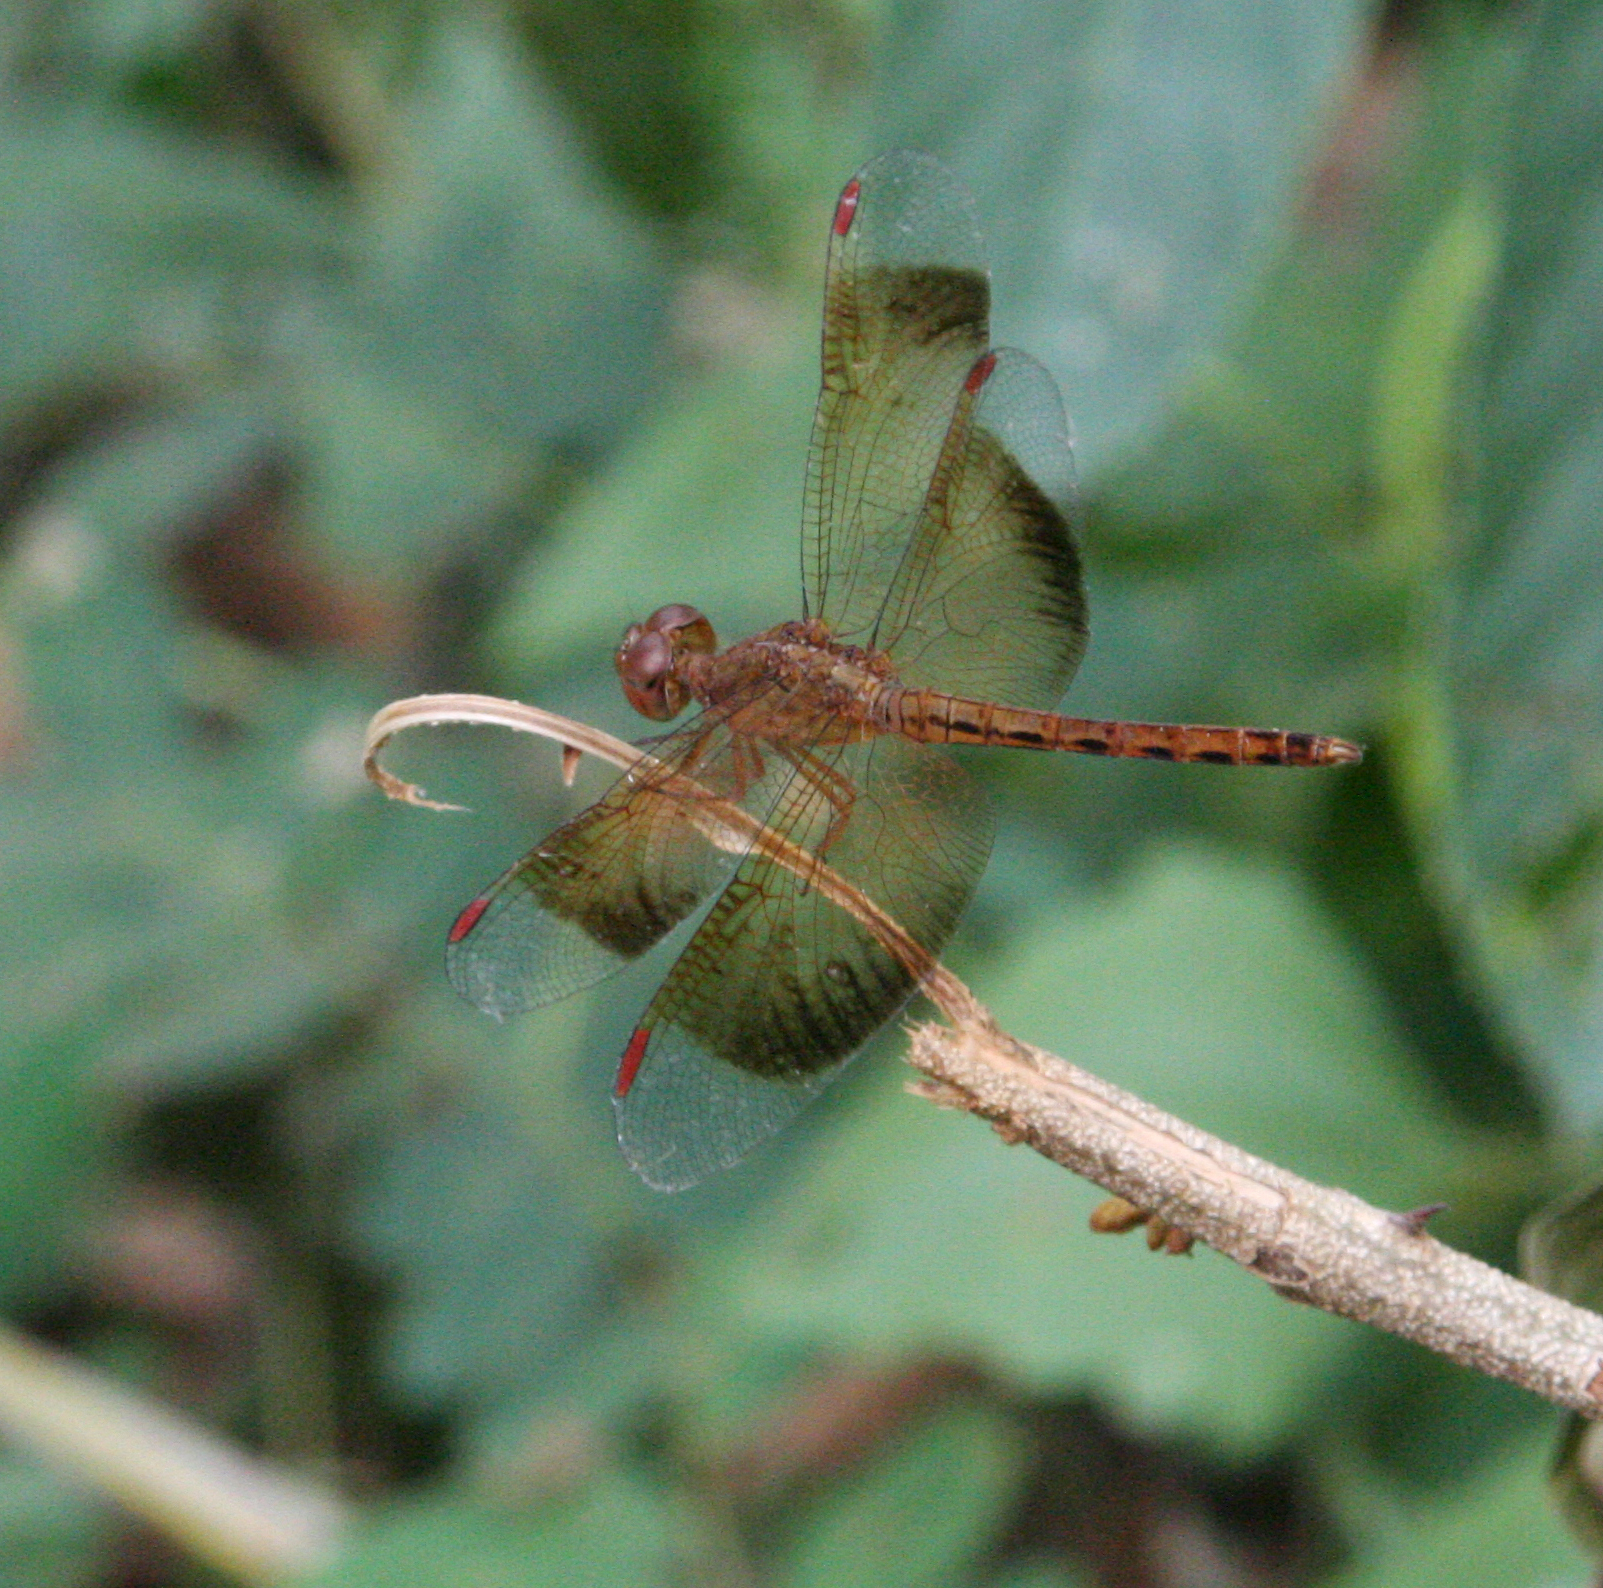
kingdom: Animalia
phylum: Arthropoda
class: Insecta
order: Odonata
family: Libellulidae
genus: Neurothemis
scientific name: Neurothemis fluctuans
